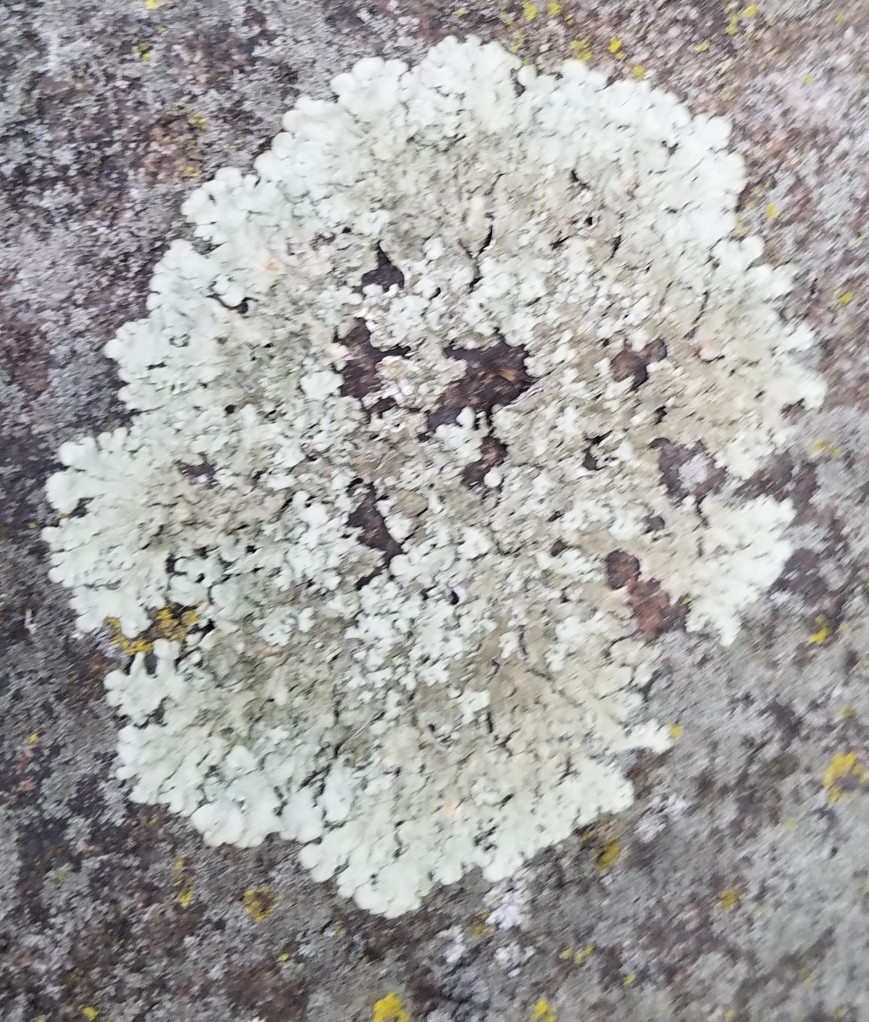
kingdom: Fungi
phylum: Ascomycota
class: Lecanoromycetes
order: Lecanorales
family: Parmeliaceae
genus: Flavoparmelia
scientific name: Flavoparmelia caperata
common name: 40-mile per hour lichen
